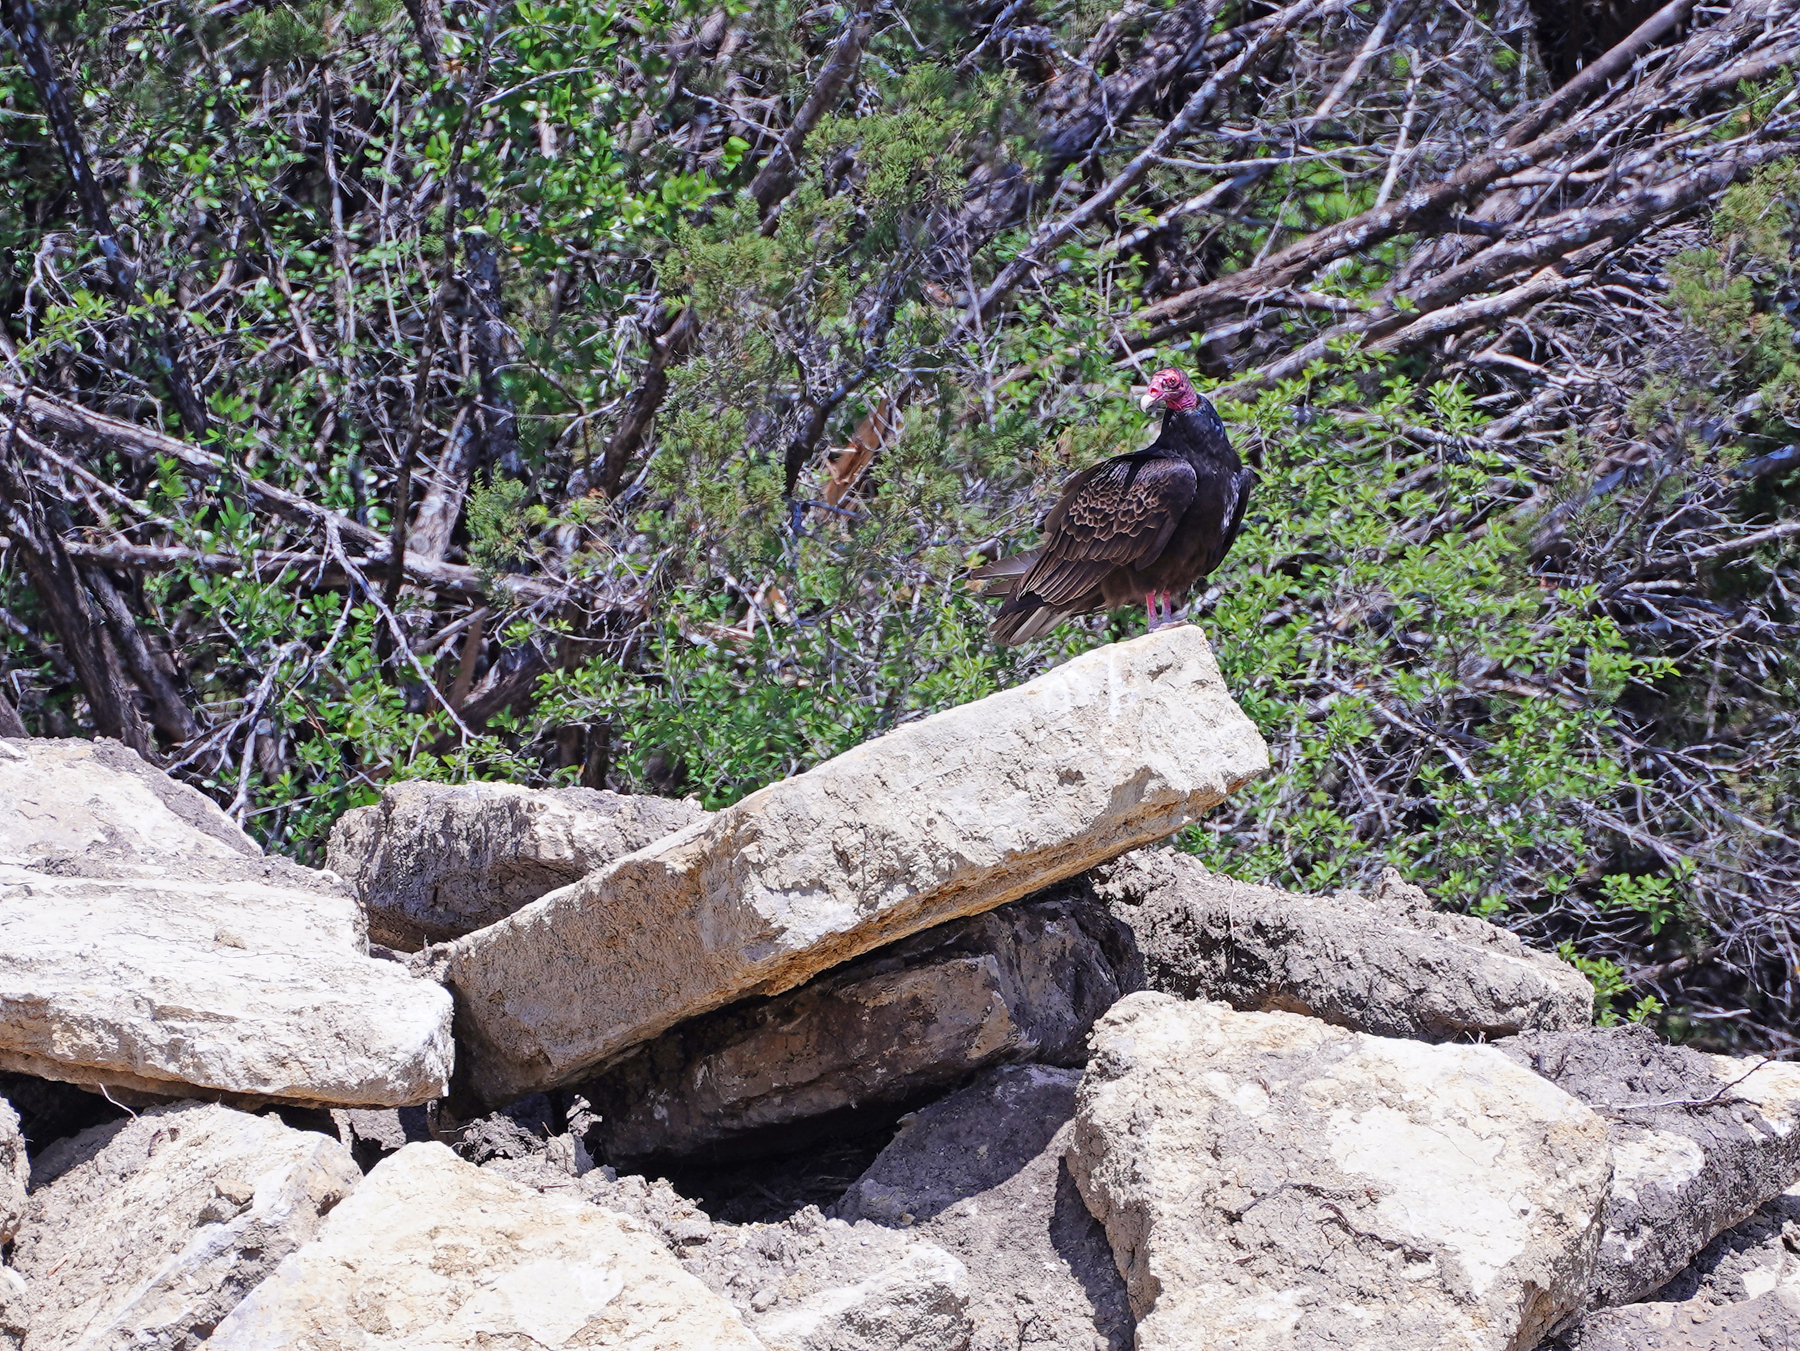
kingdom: Animalia
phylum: Chordata
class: Aves
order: Accipitriformes
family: Cathartidae
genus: Cathartes
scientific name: Cathartes aura
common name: Turkey vulture
